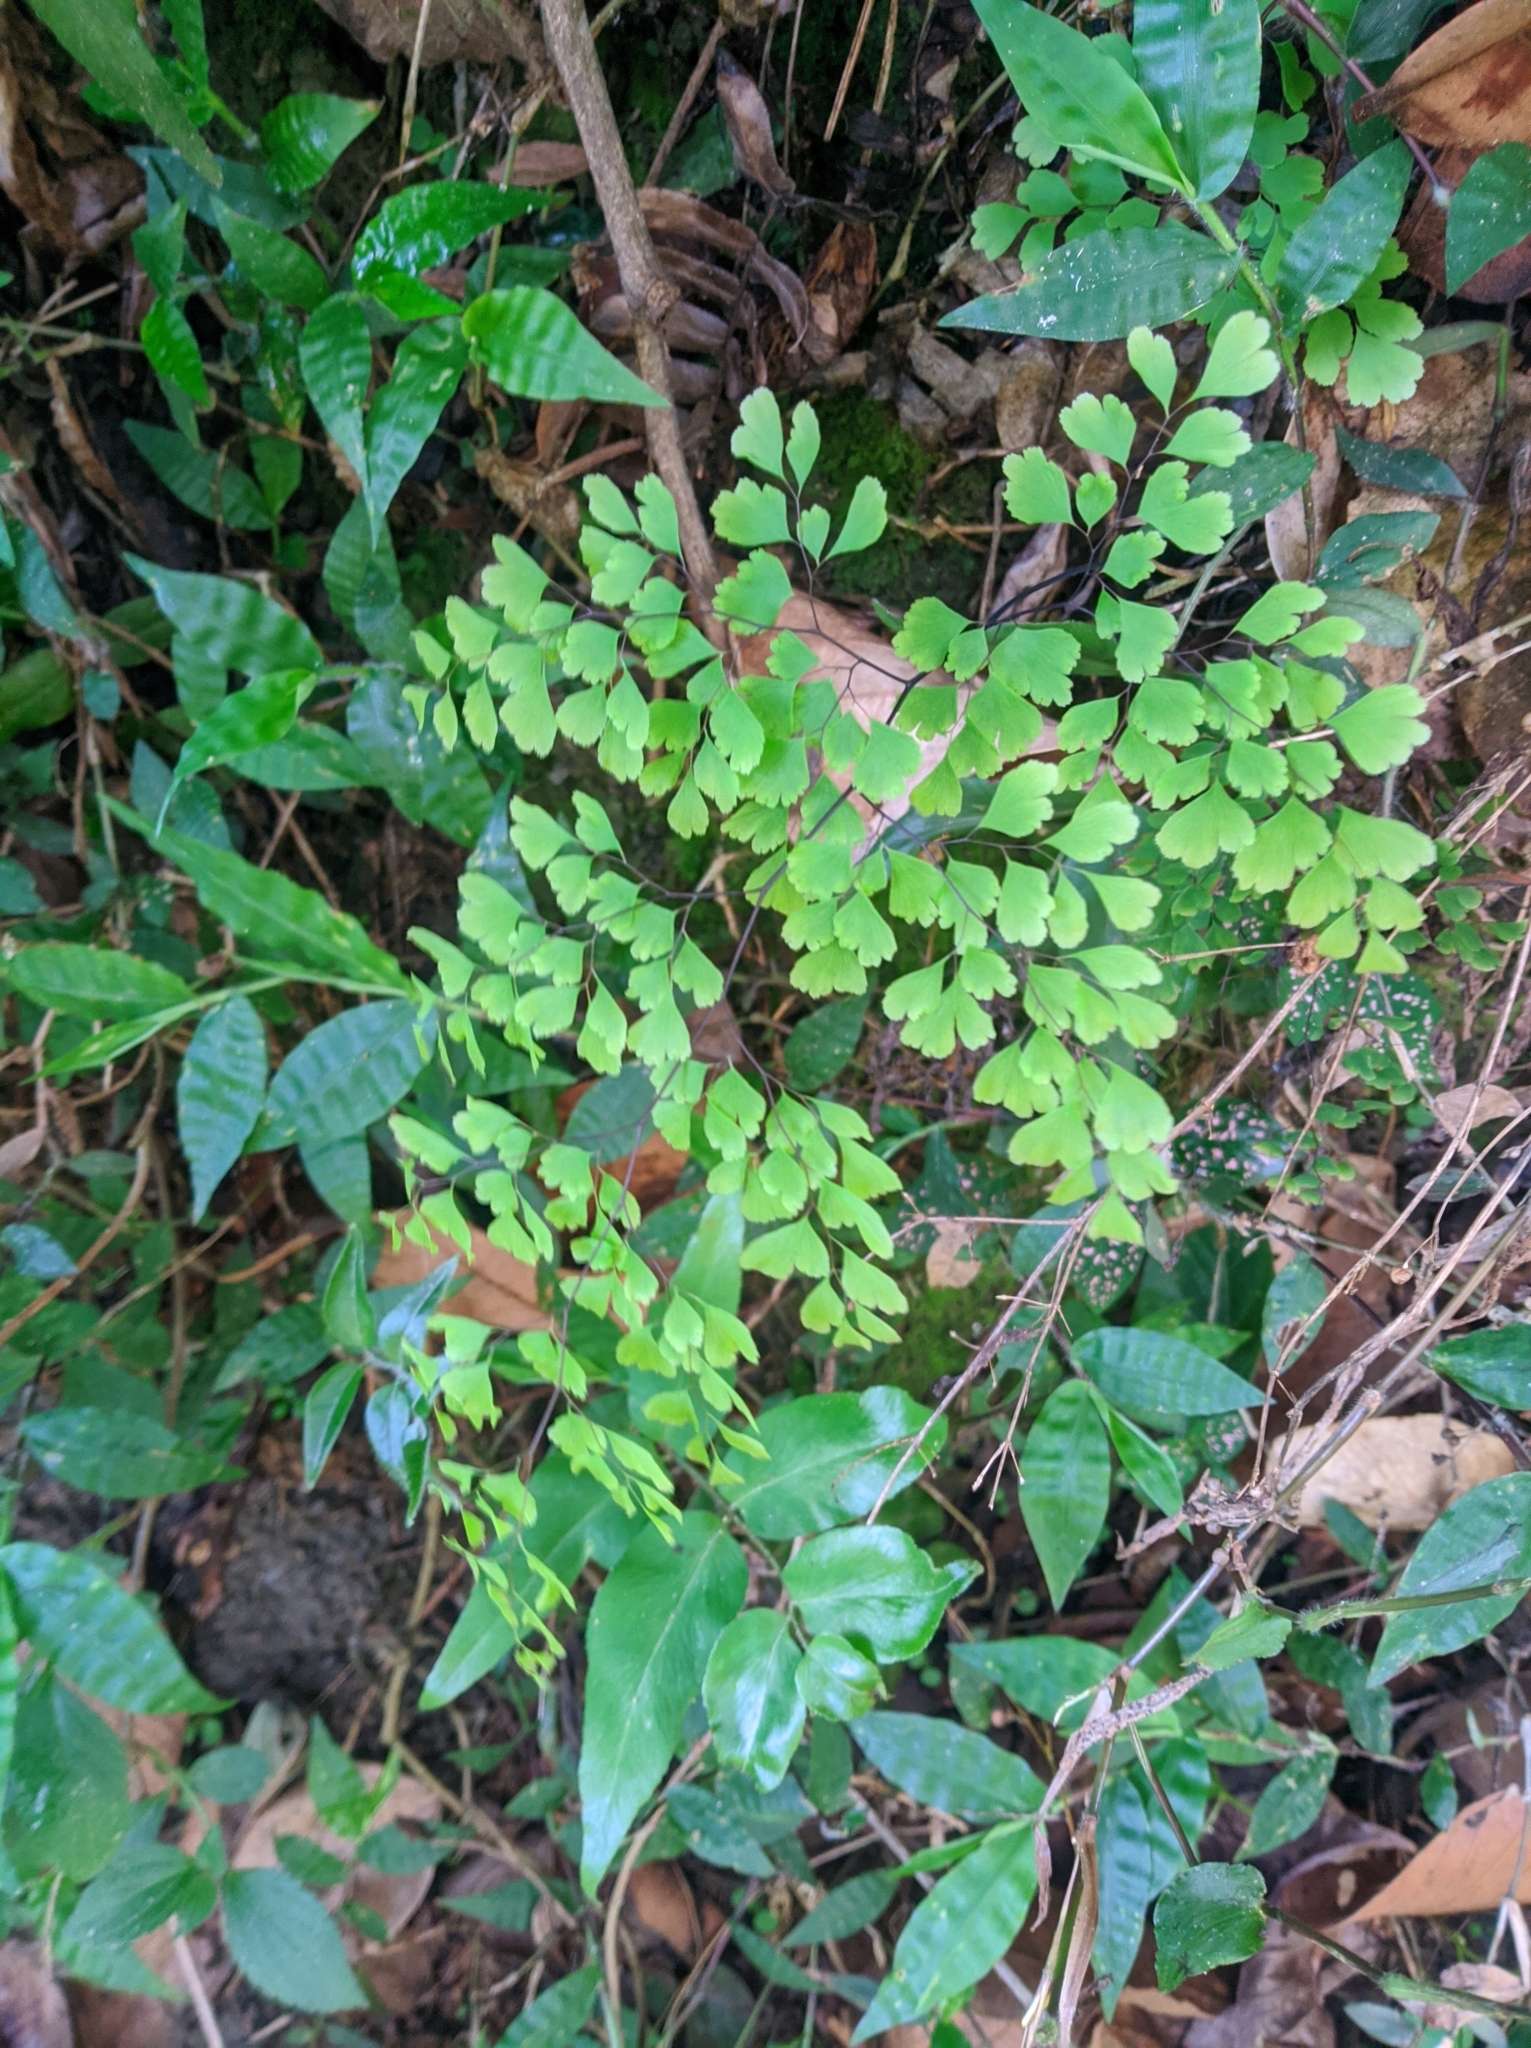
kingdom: Plantae
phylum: Tracheophyta
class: Polypodiopsida
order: Polypodiales
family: Pteridaceae
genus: Adiantum
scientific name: Adiantum raddianum
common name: Delta maidenhair fern
